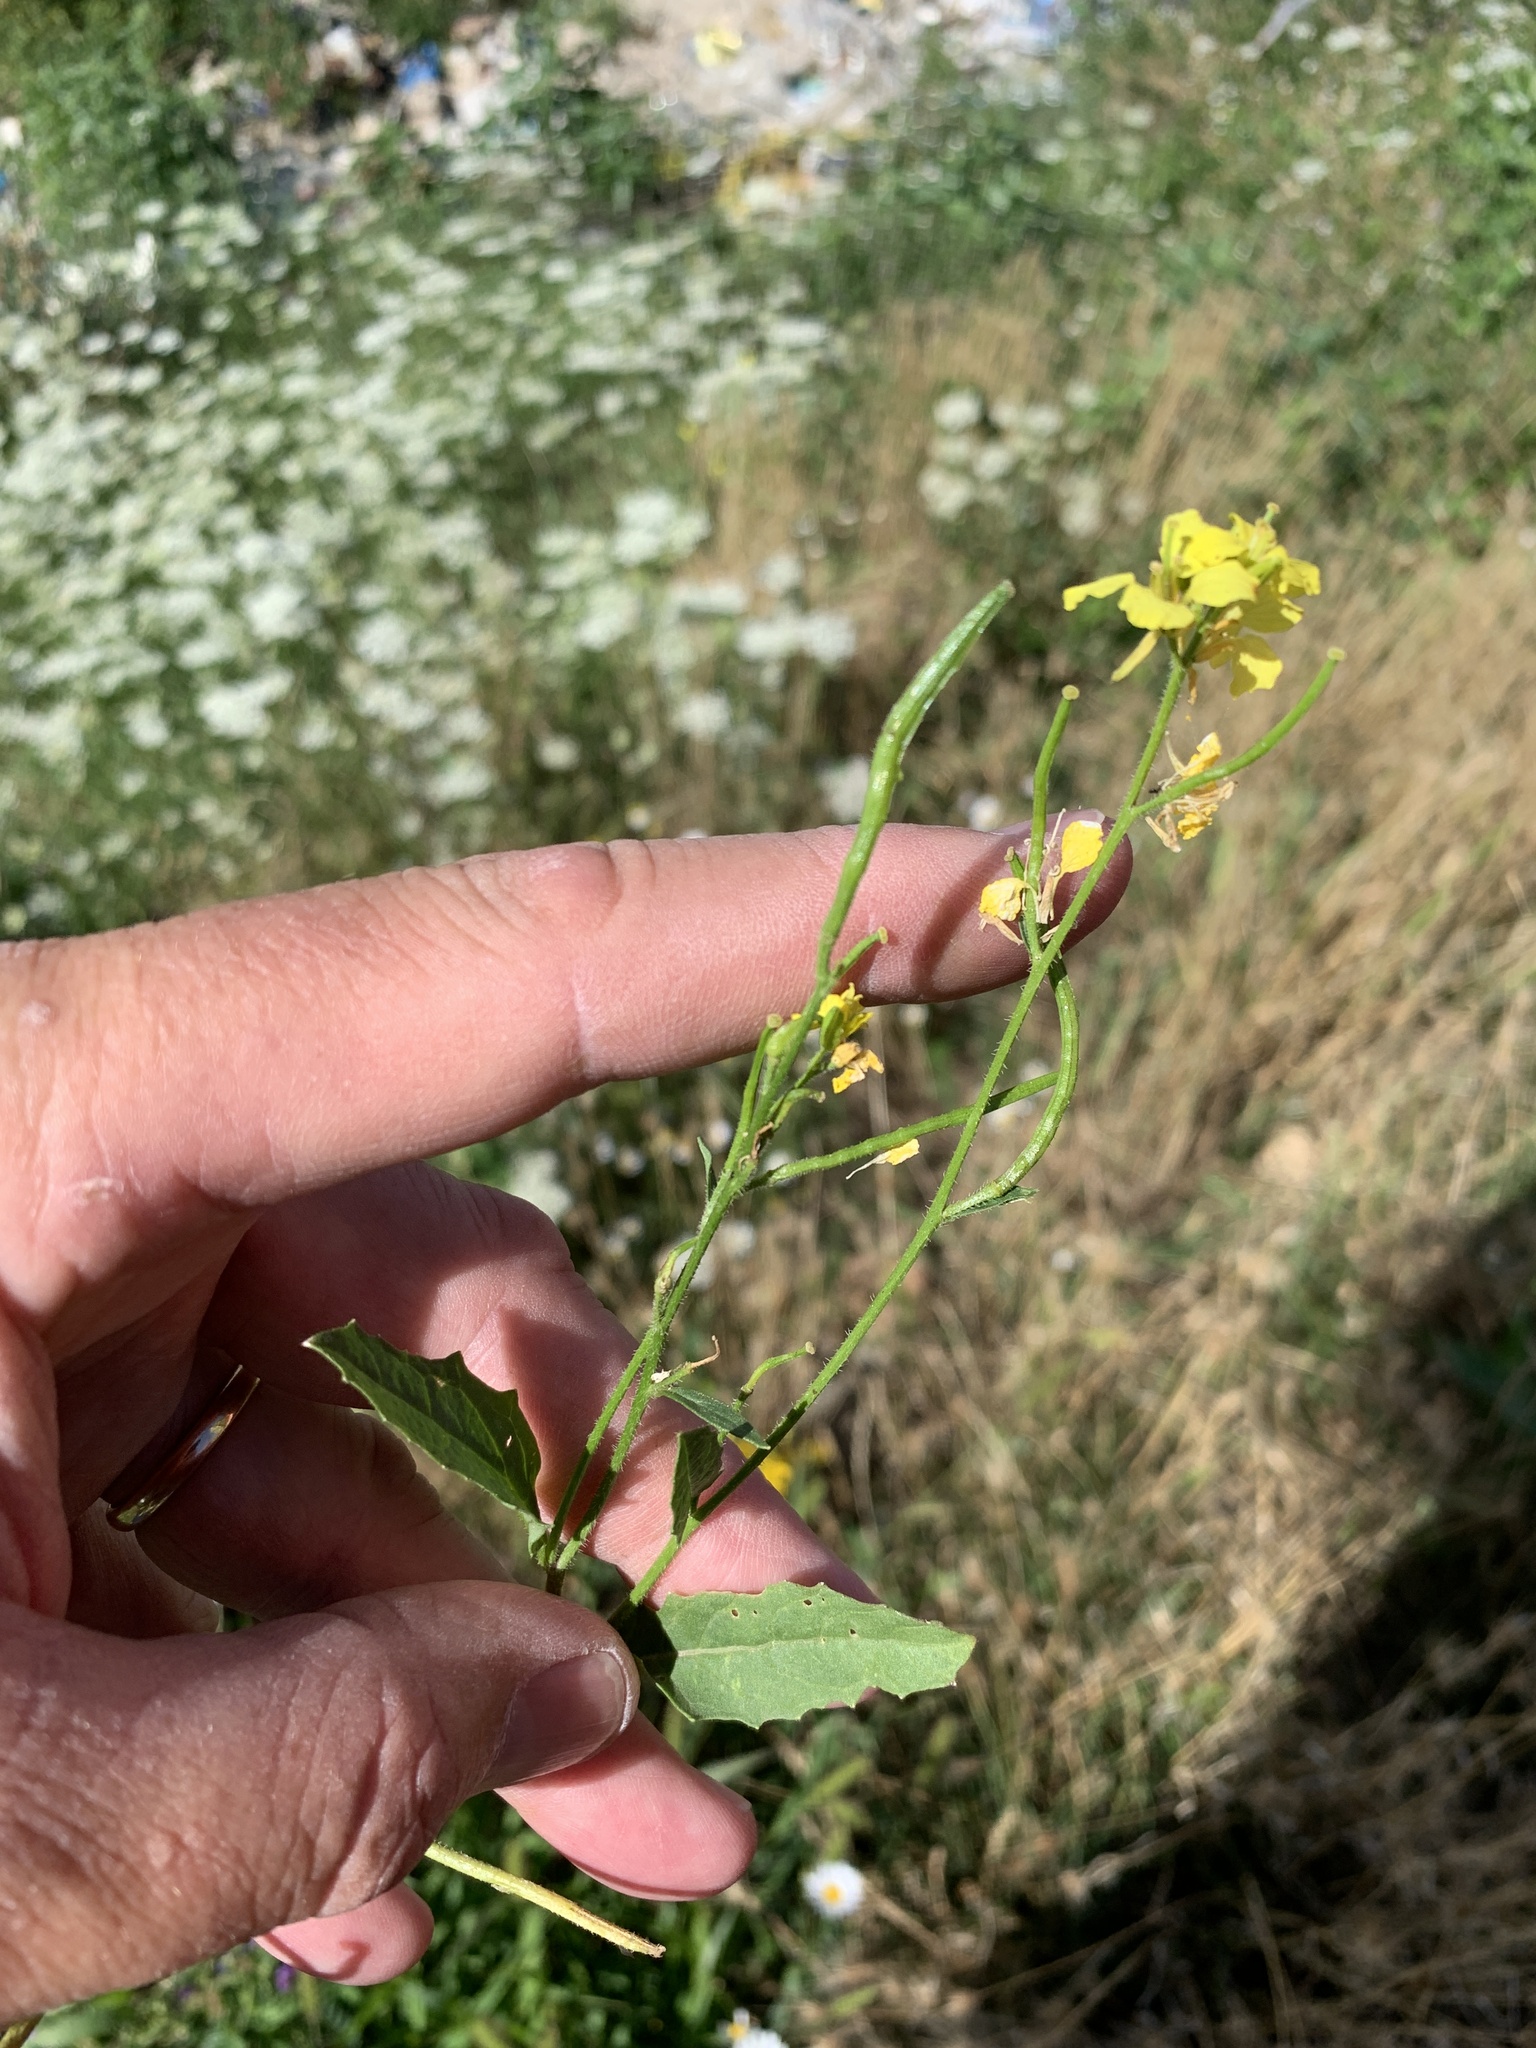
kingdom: Plantae
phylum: Tracheophyta
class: Magnoliopsida
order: Brassicales
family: Brassicaceae
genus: Sinapis
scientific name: Sinapis arvensis
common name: Charlock
